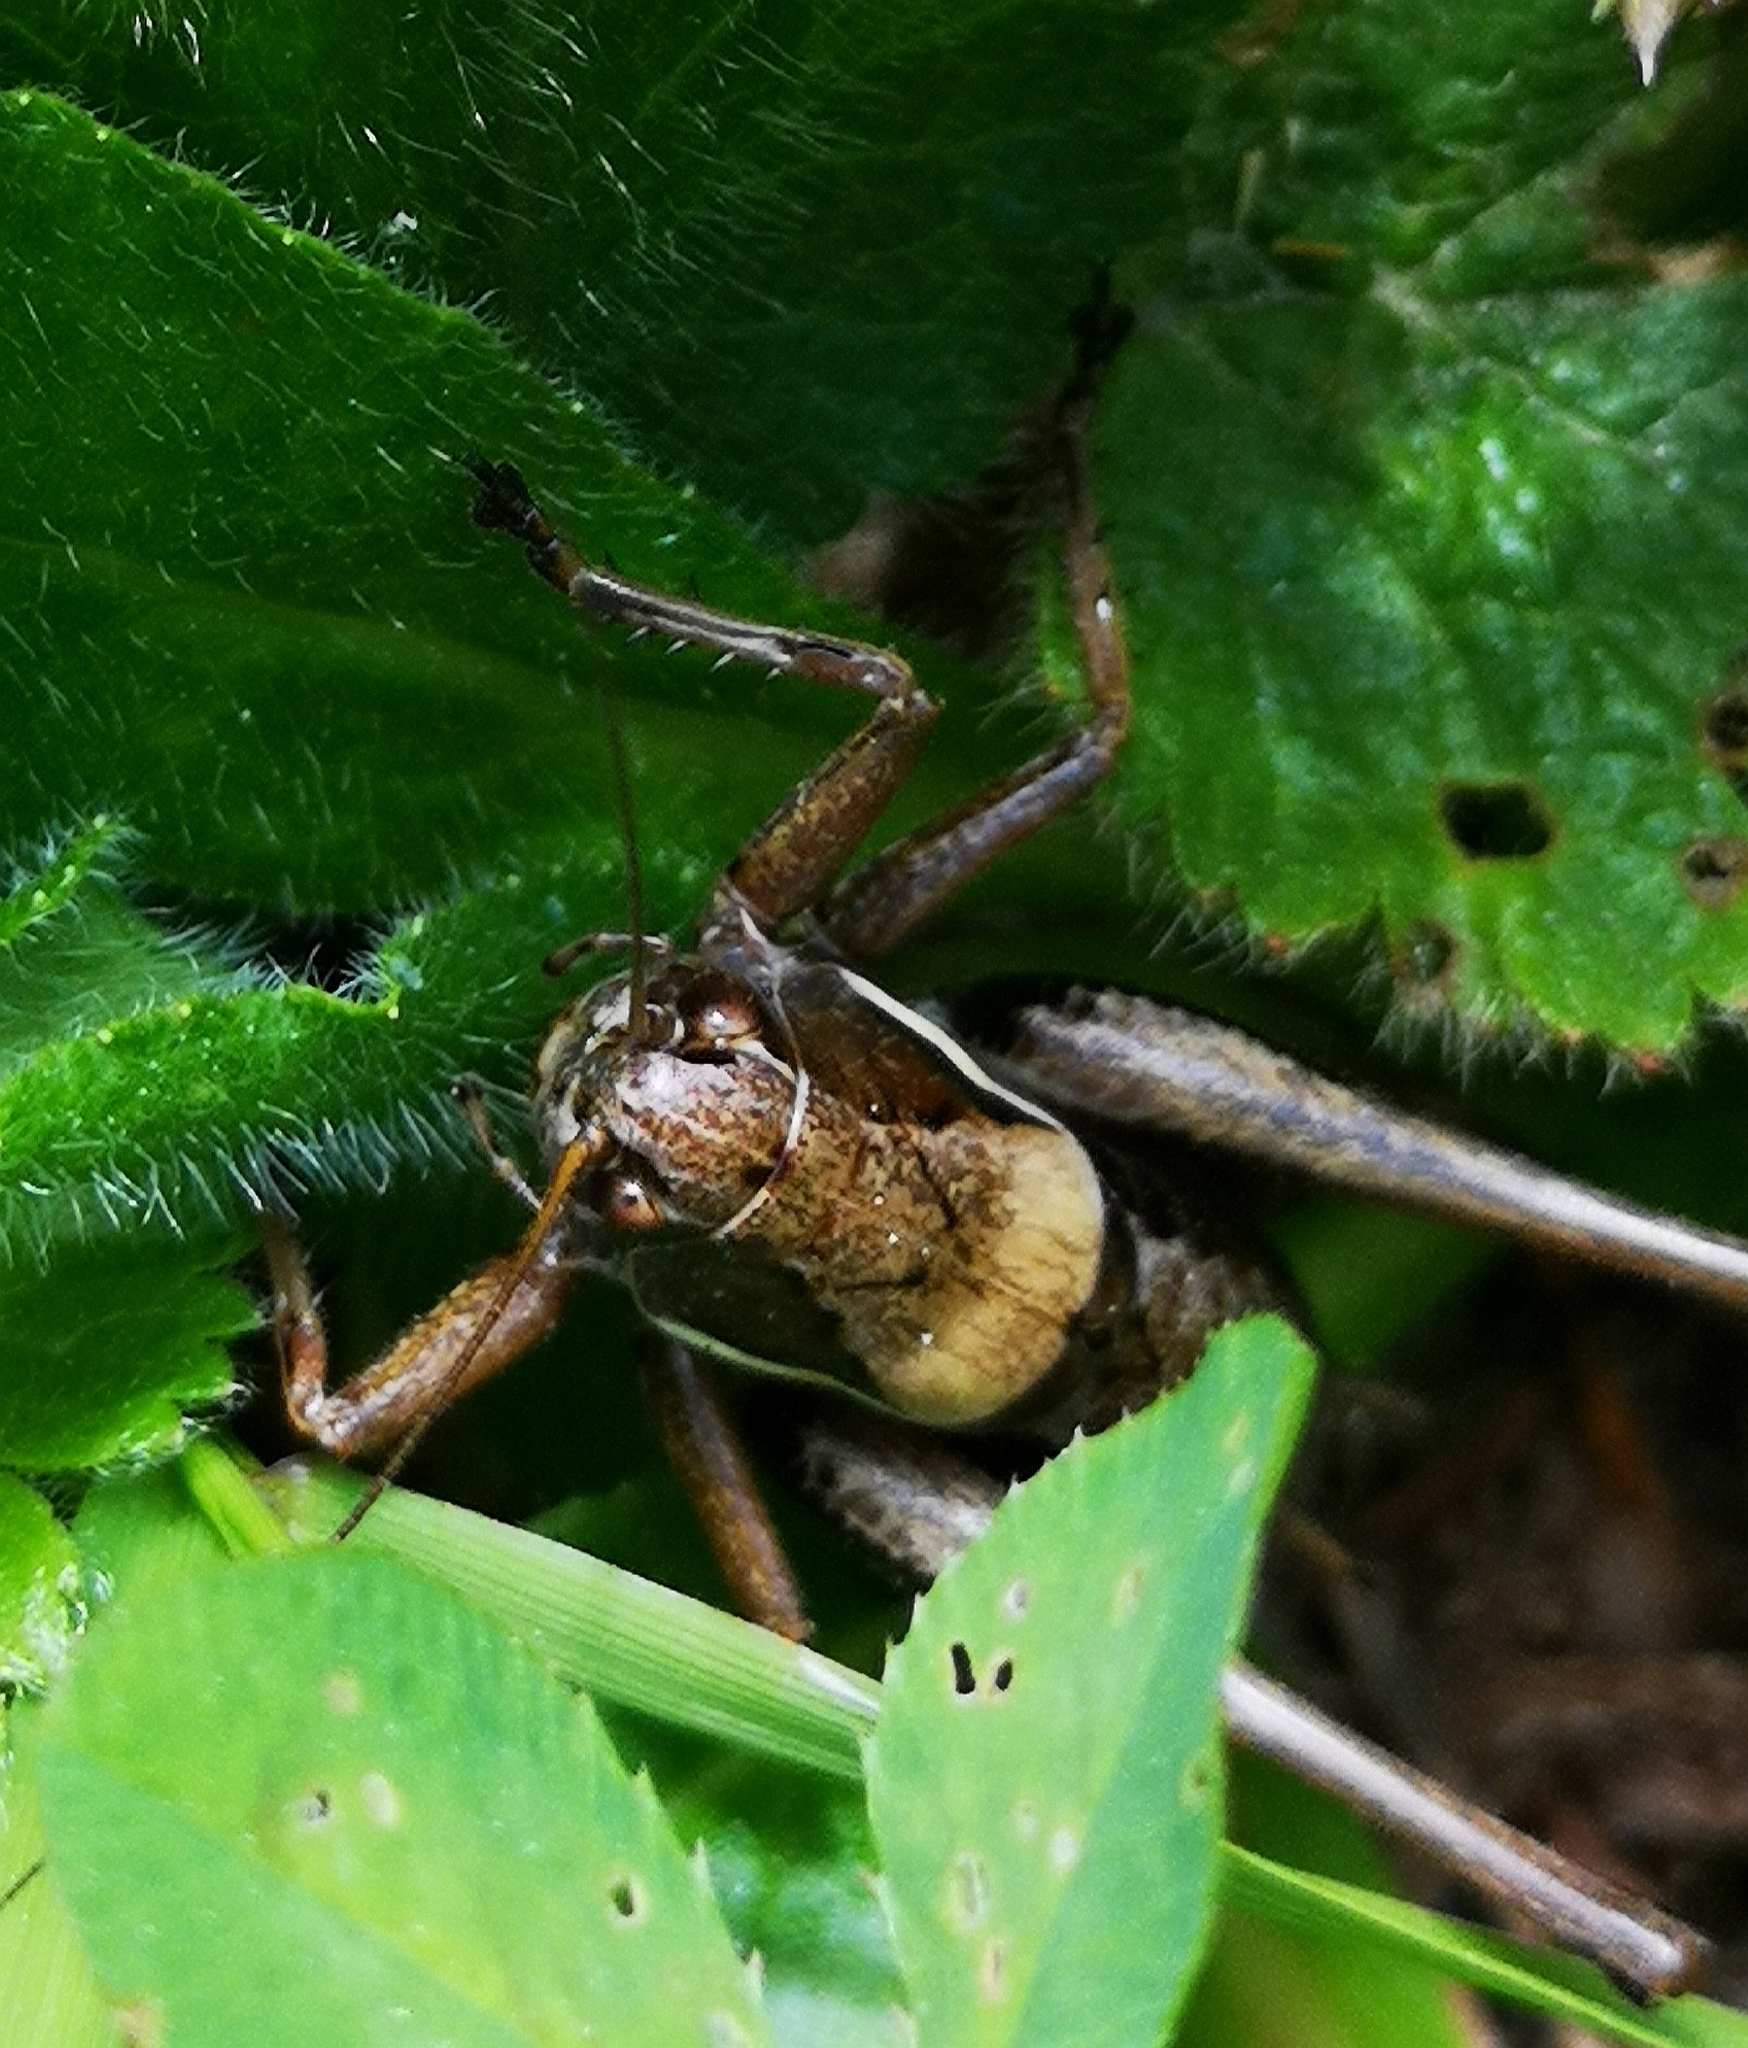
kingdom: Animalia
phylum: Arthropoda
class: Insecta
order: Orthoptera
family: Tettigoniidae
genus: Pholidoptera
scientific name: Pholidoptera aptera
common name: Alpine dark bush-cricket
